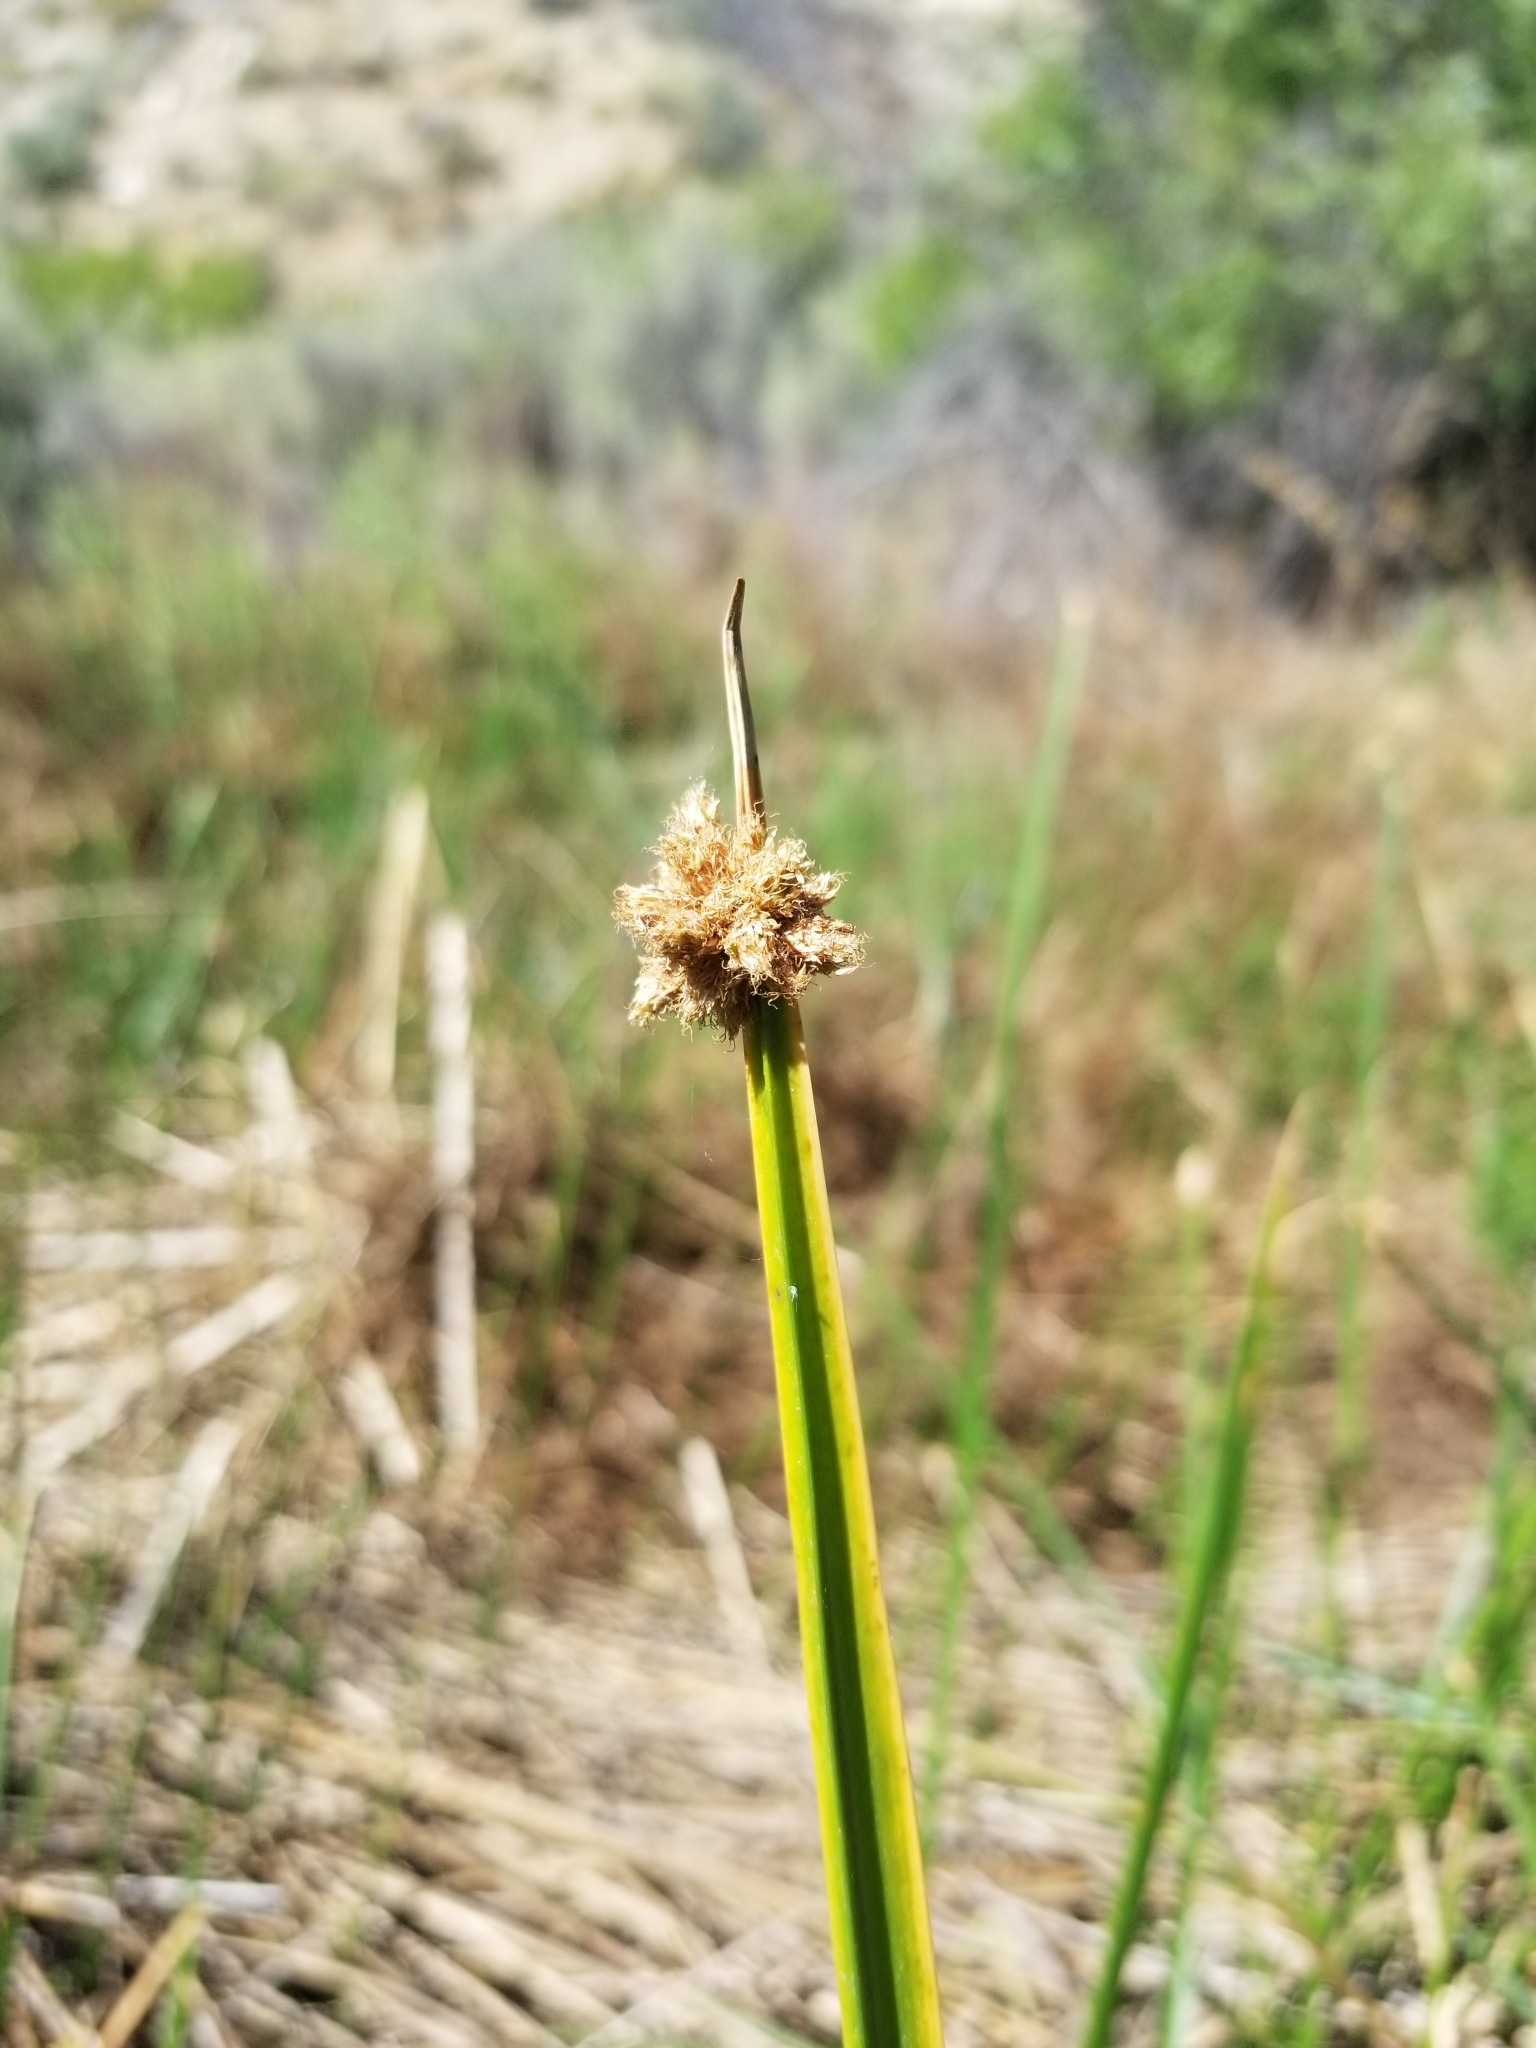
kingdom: Plantae
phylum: Tracheophyta
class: Liliopsida
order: Poales
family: Cyperaceae
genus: Schoenoplectus
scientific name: Schoenoplectus americanus
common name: American three-square bulrush
